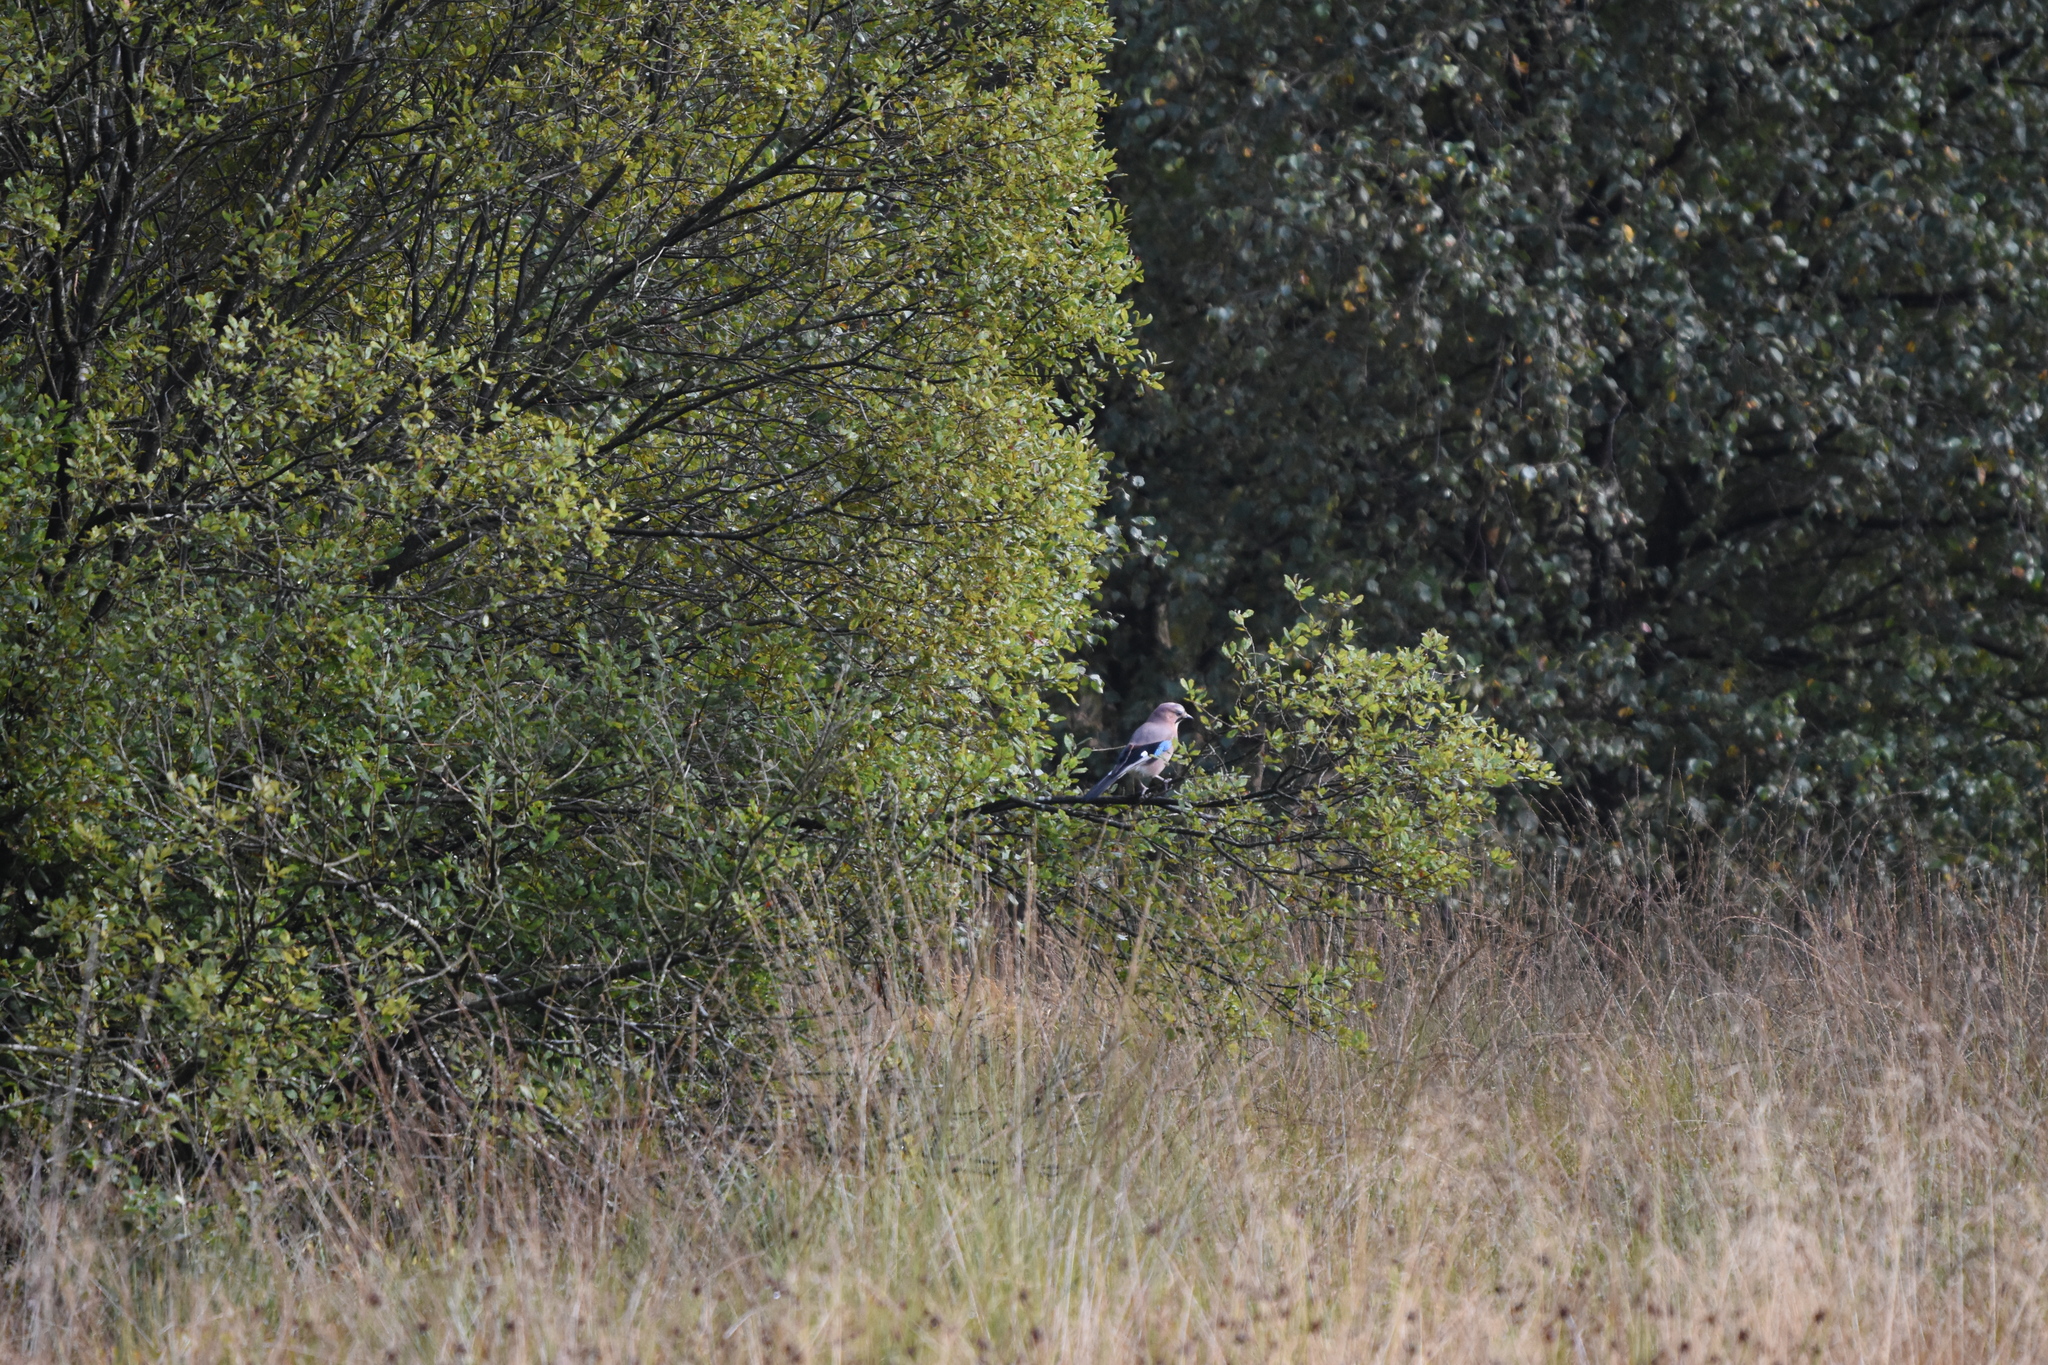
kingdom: Animalia
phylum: Chordata
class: Aves
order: Passeriformes
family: Corvidae
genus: Garrulus
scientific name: Garrulus glandarius
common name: Eurasian jay
